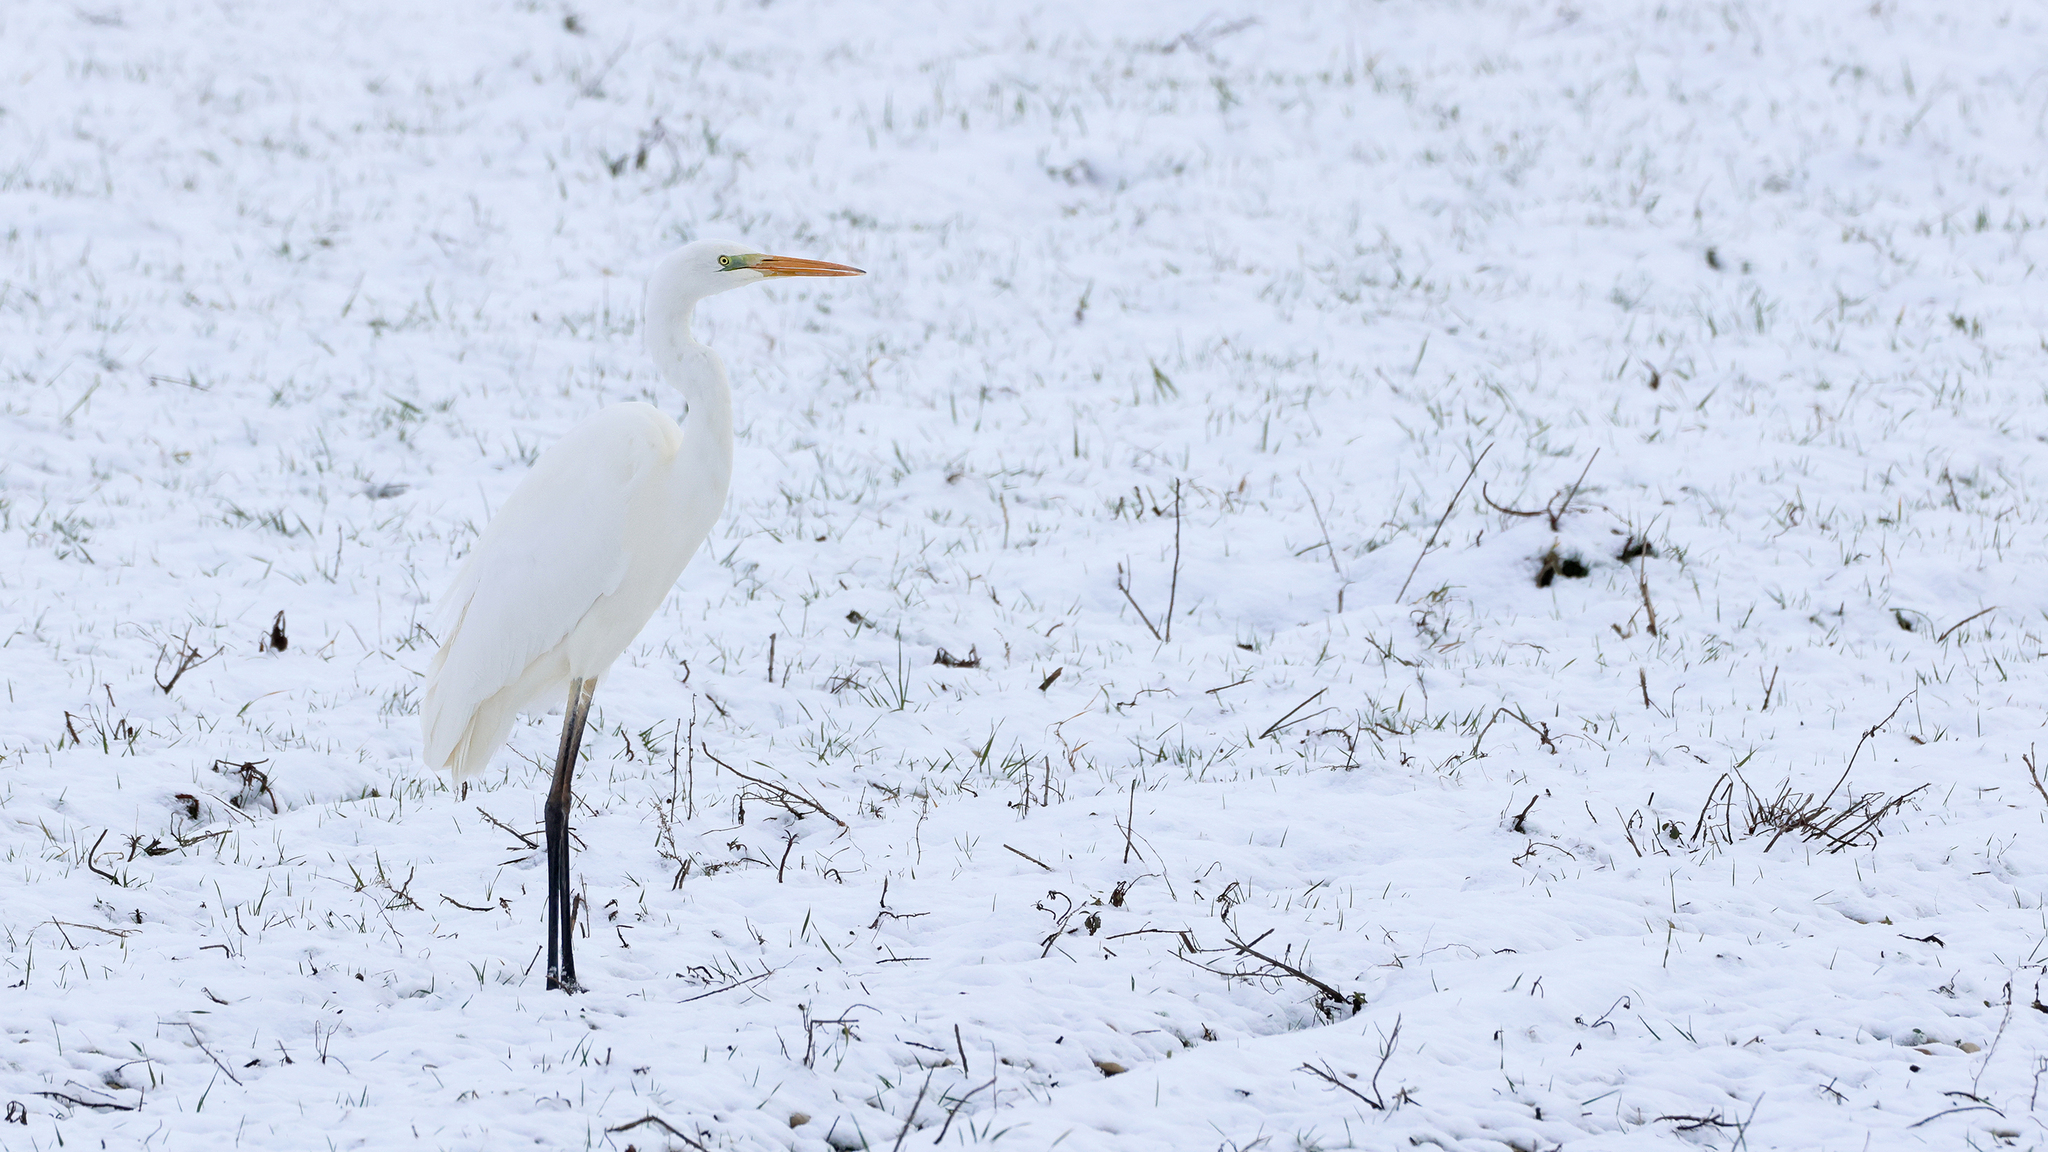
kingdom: Animalia
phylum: Chordata
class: Aves
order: Pelecaniformes
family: Ardeidae
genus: Ardea
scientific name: Ardea alba
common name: Great egret
